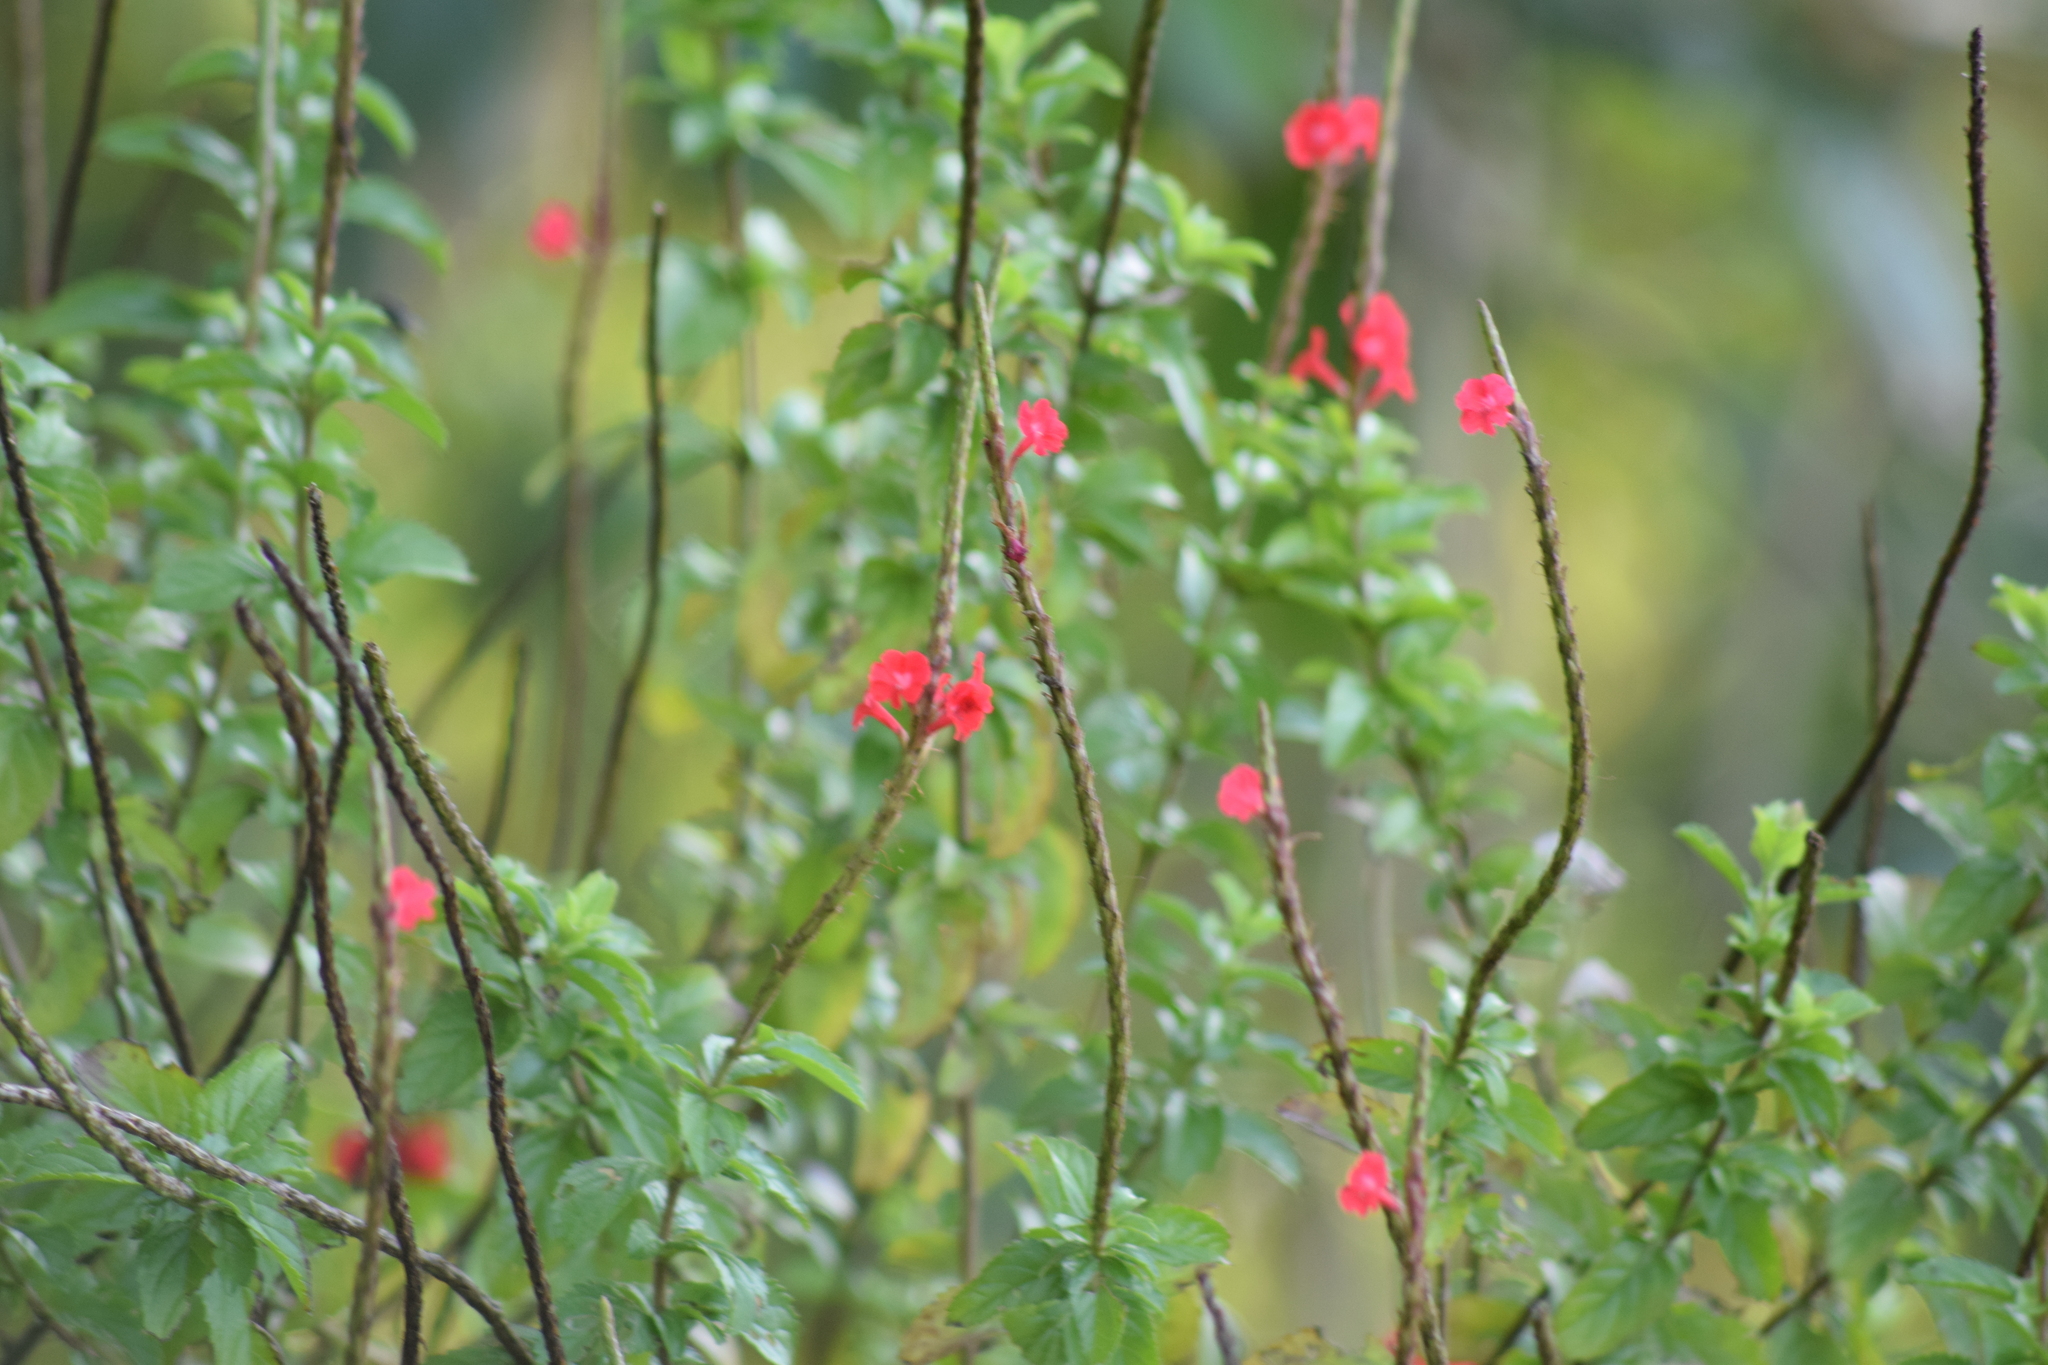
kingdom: Plantae
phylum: Tracheophyta
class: Magnoliopsida
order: Lamiales
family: Verbenaceae
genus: Stachytarpheta
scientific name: Stachytarpheta mutabilis
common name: Changeable velvetberry
